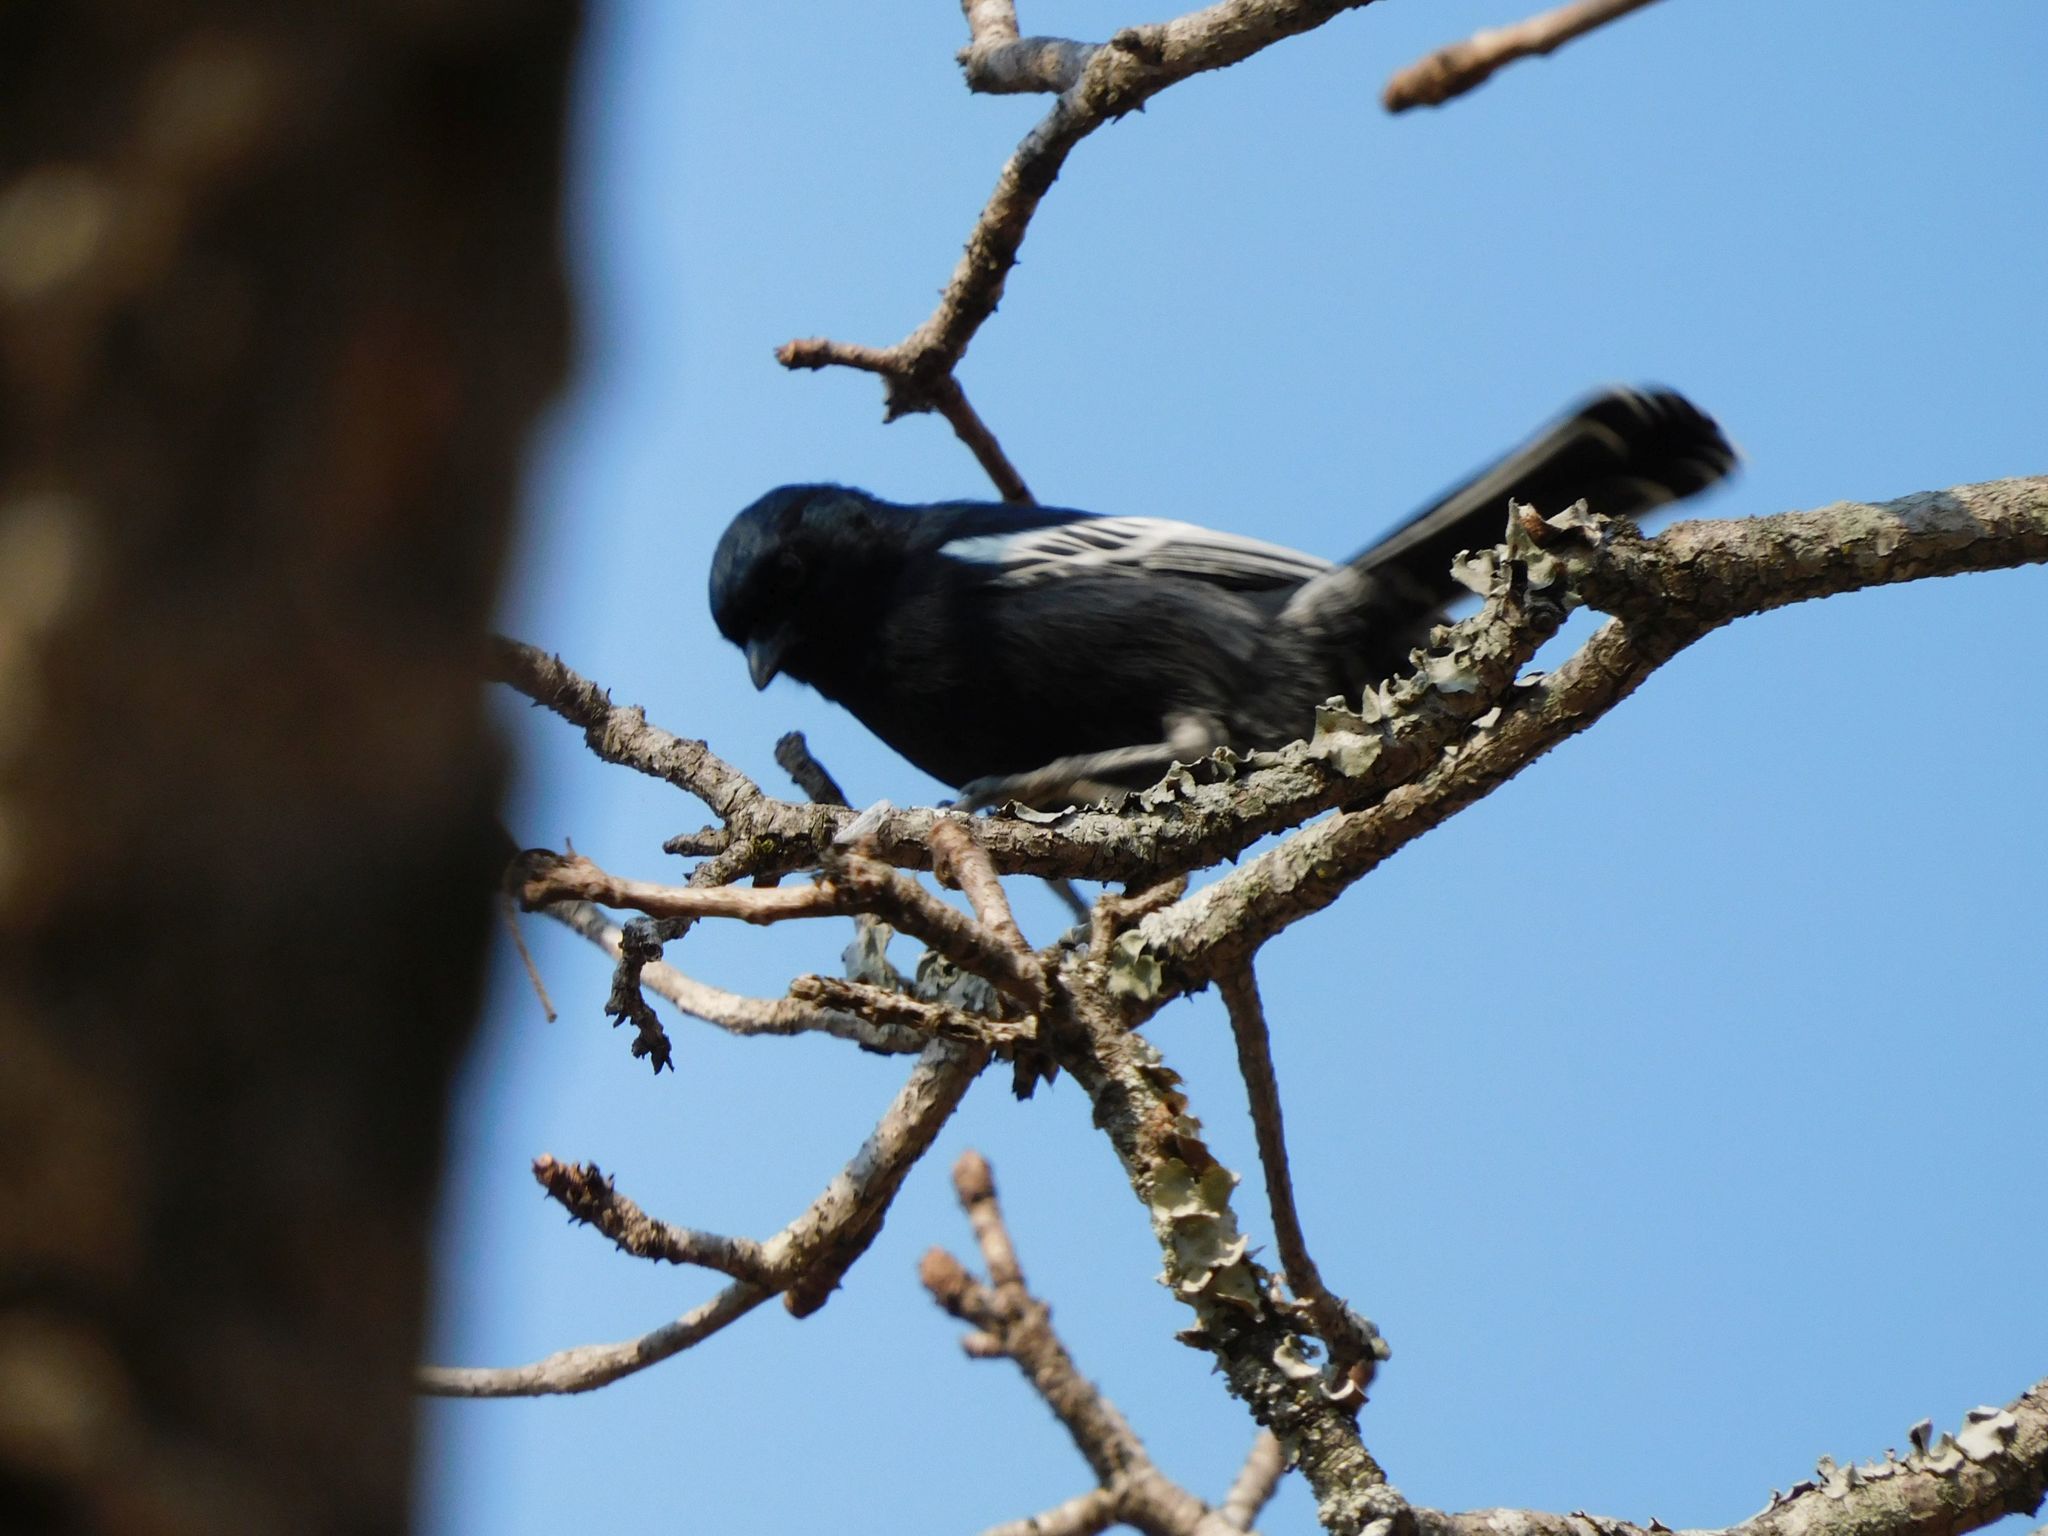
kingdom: Animalia
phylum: Chordata
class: Aves
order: Passeriformes
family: Paridae
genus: Parus
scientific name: Parus niger
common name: Southern black tit
